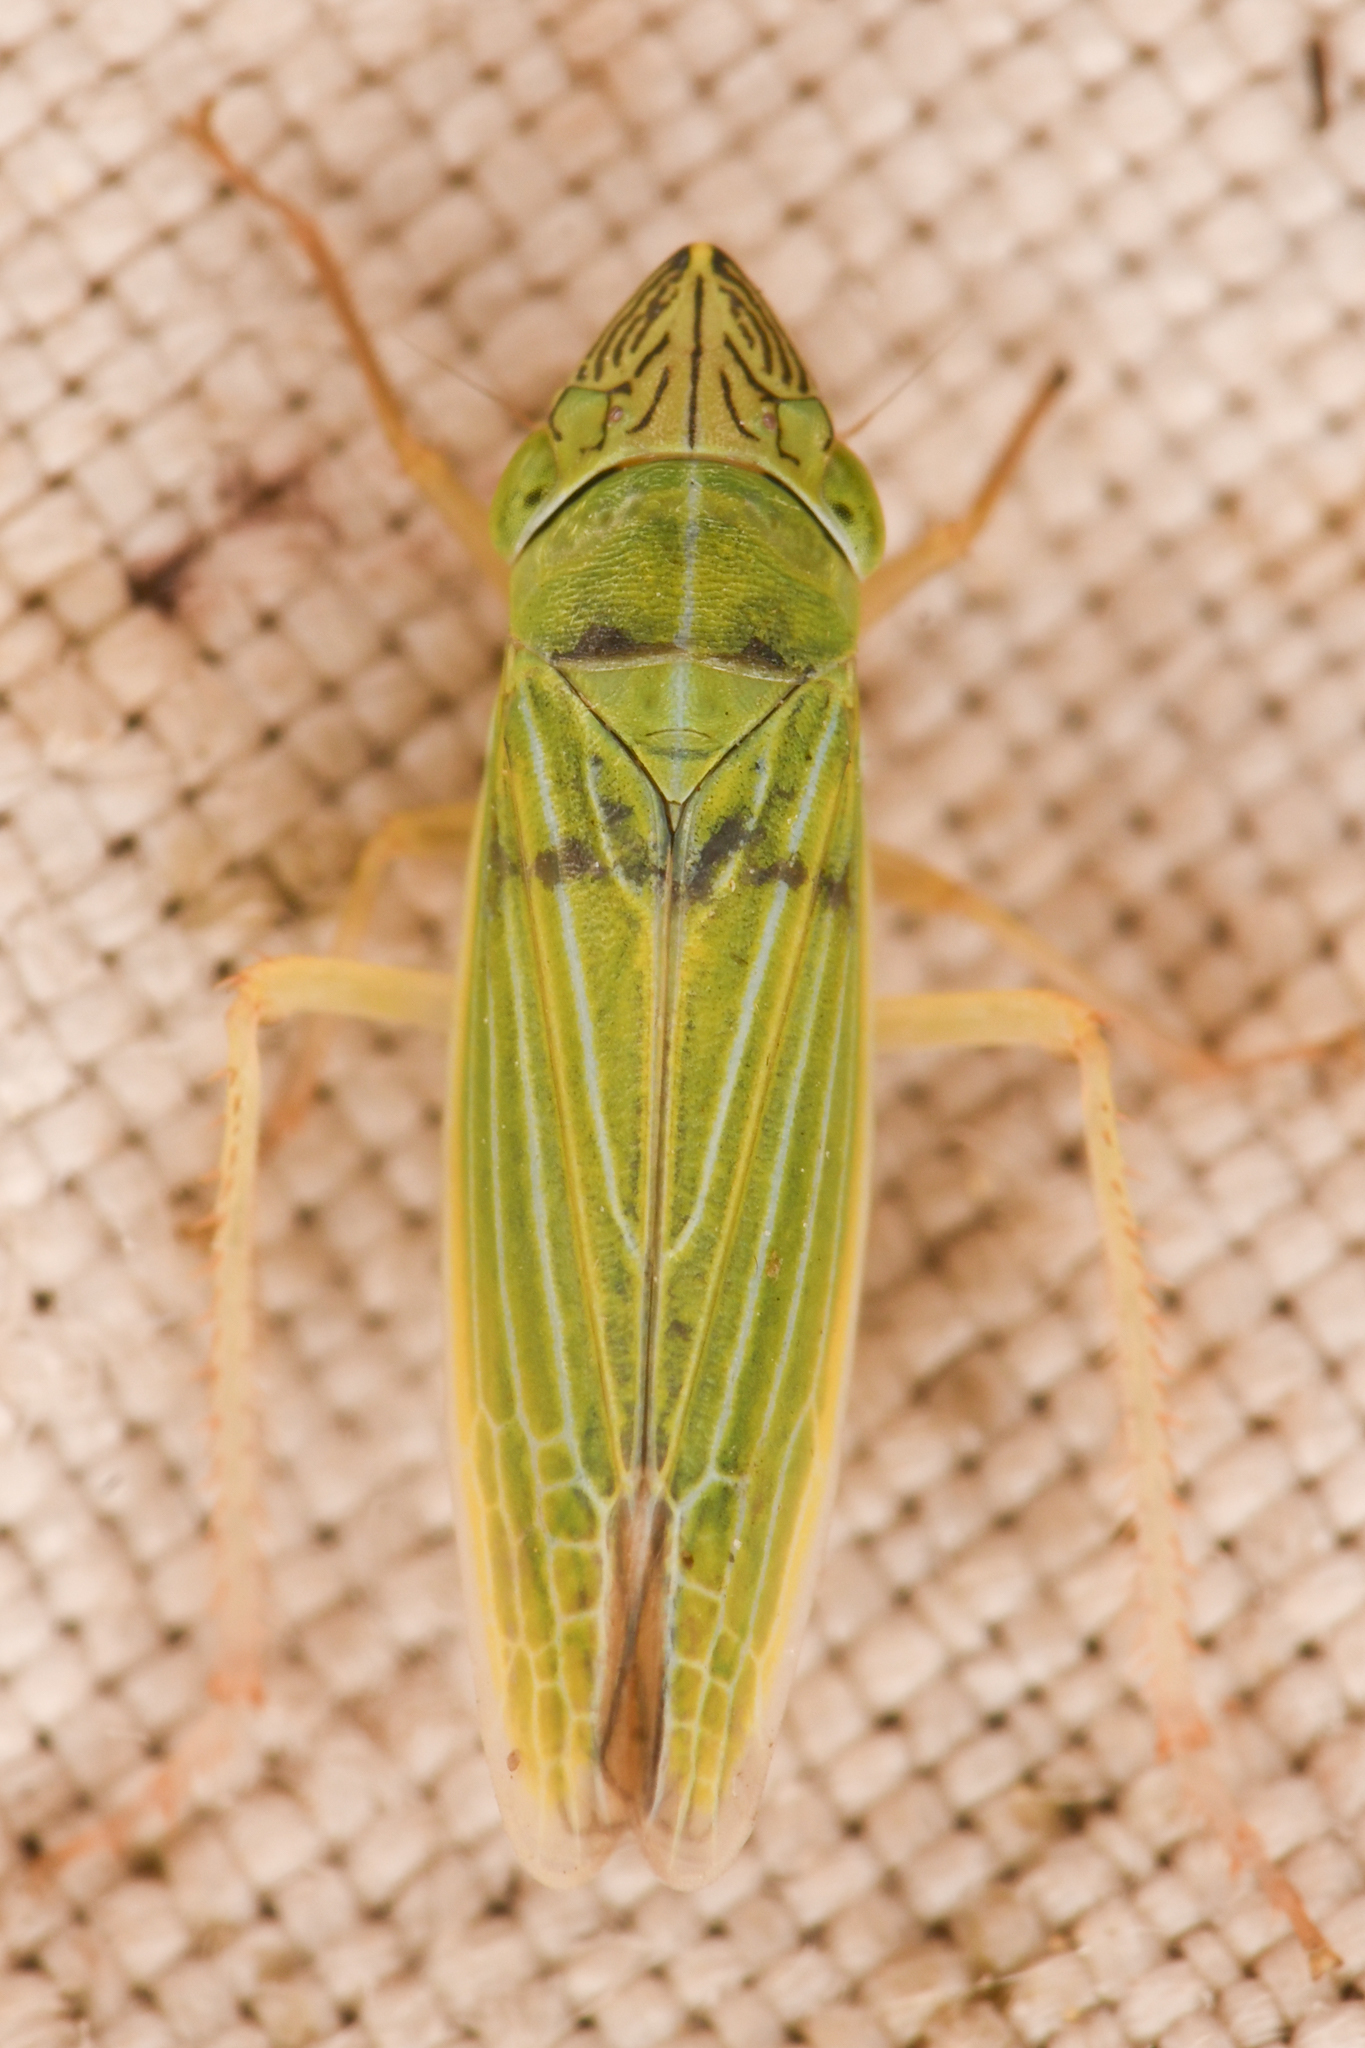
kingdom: Animalia
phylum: Arthropoda
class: Insecta
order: Hemiptera
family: Cicadellidae
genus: Draeculacephala
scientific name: Draeculacephala crassicornis
